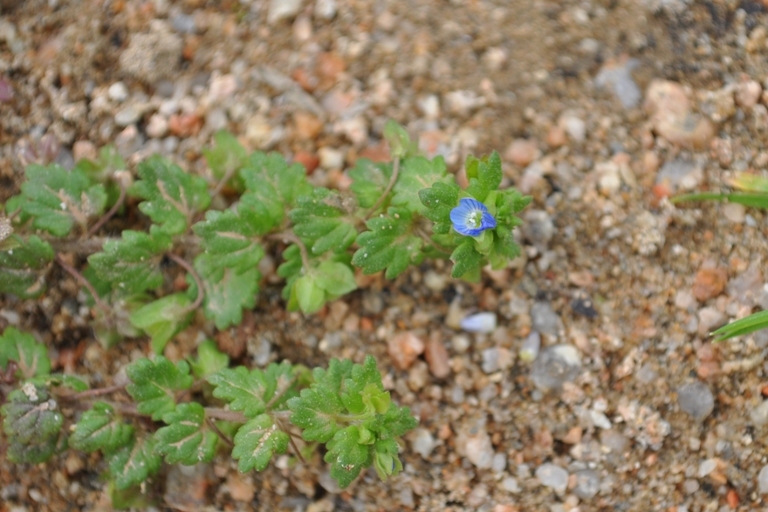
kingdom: Plantae
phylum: Tracheophyta
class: Magnoliopsida
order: Lamiales
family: Plantaginaceae
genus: Veronica
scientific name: Veronica polita
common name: Grey field-speedwell
